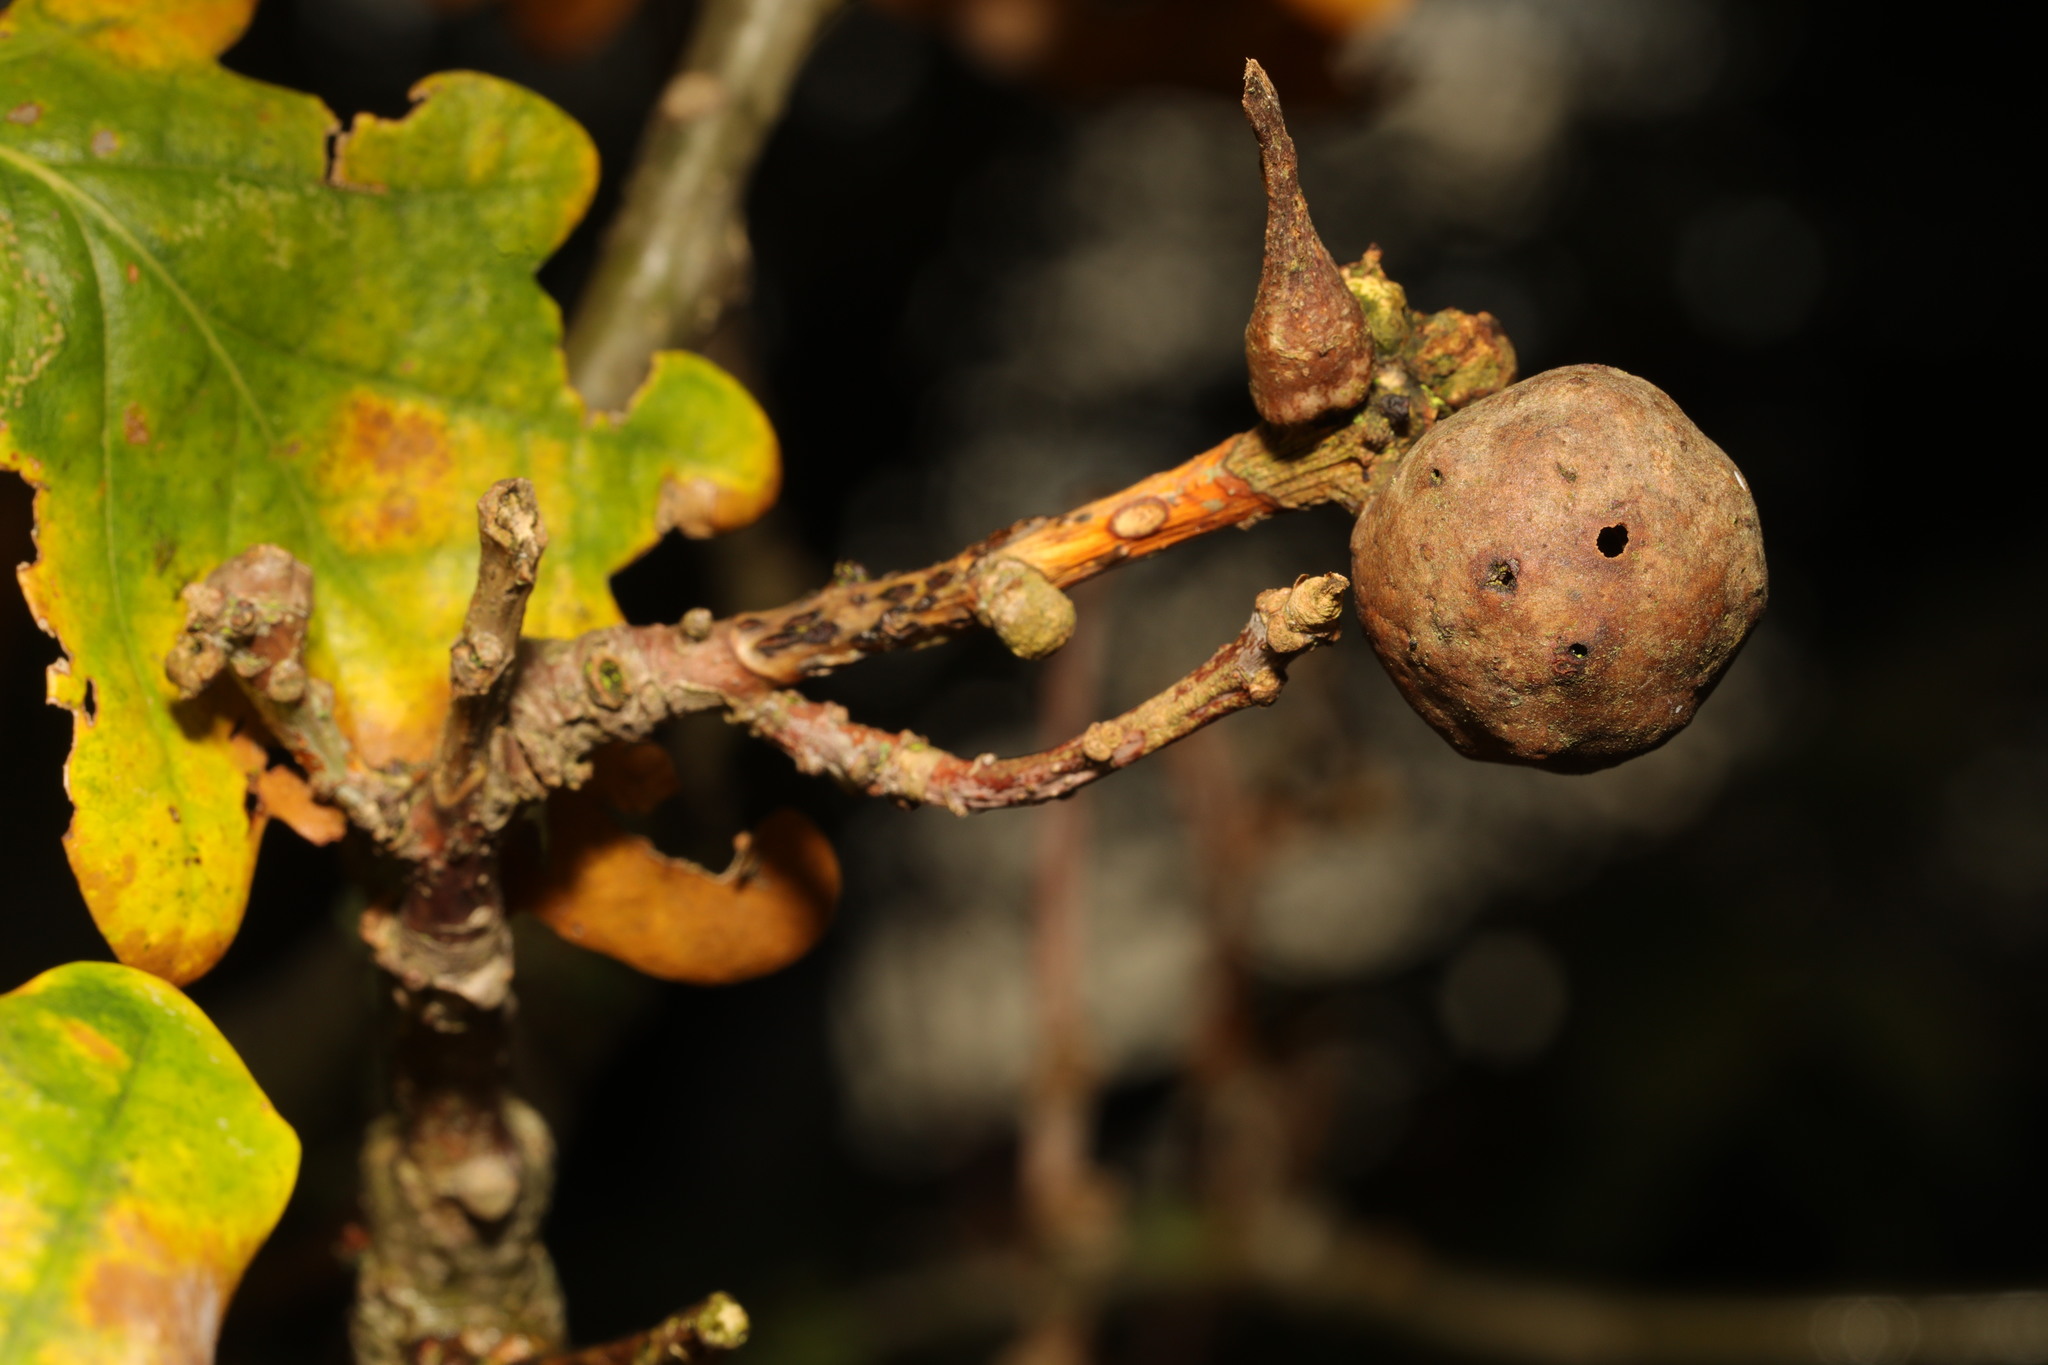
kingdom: Animalia
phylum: Arthropoda
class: Insecta
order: Hymenoptera
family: Cynipidae
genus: Andricus
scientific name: Andricus kollari
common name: Marble gall
